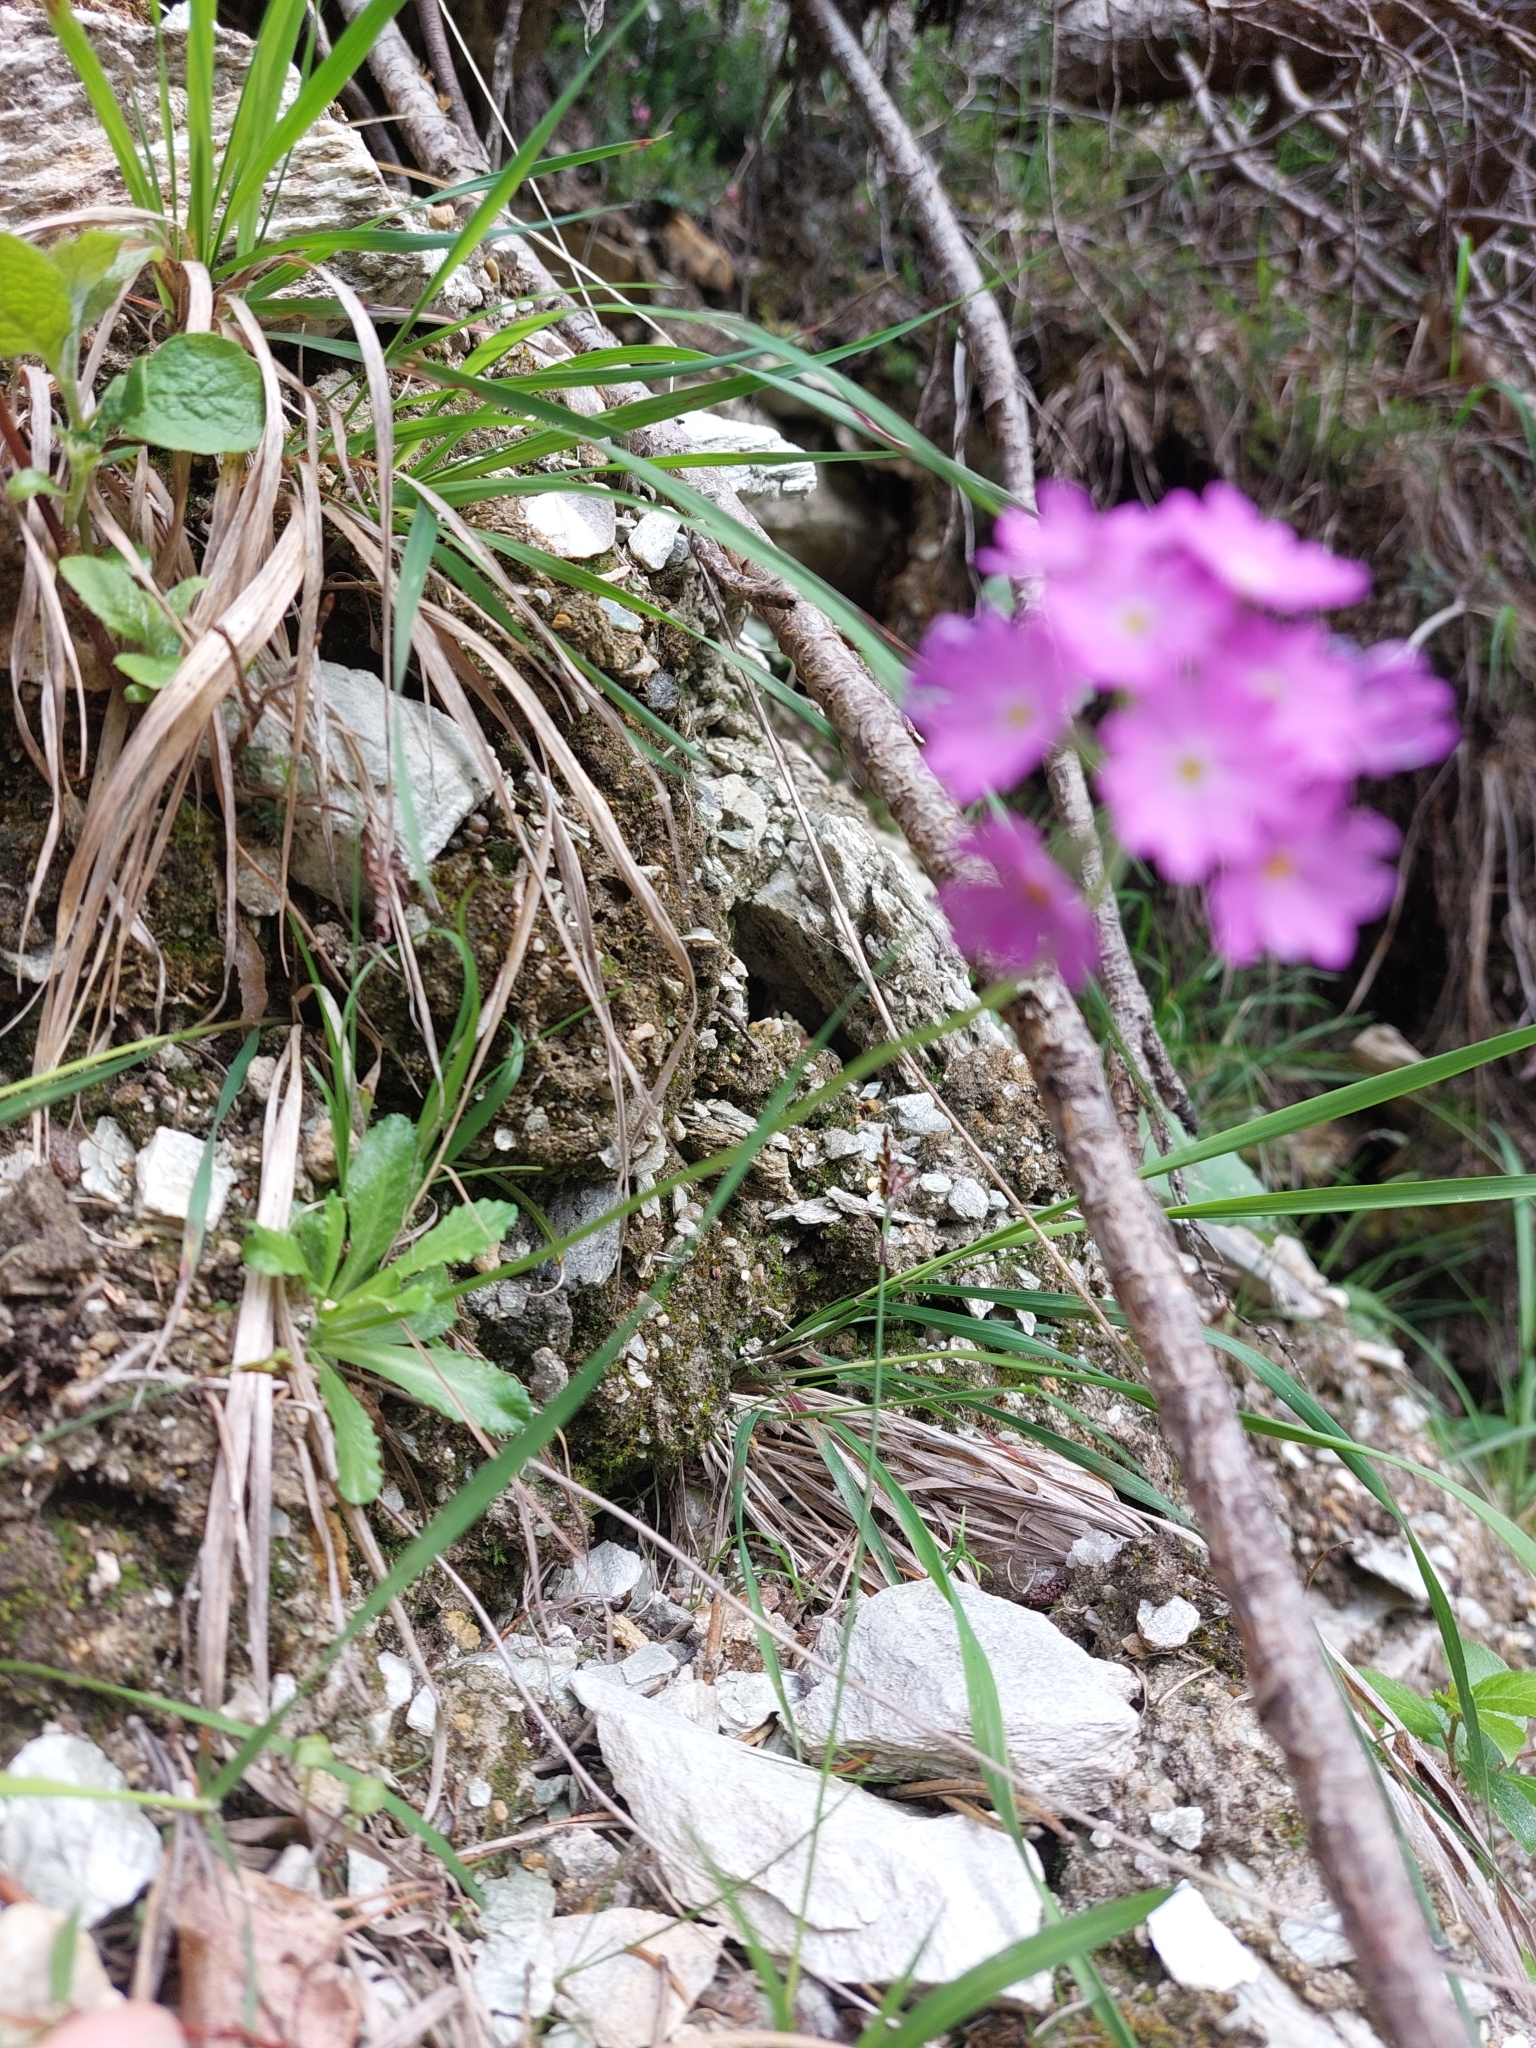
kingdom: Plantae
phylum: Tracheophyta
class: Magnoliopsida
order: Ericales
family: Primulaceae
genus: Primula
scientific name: Primula farinosa
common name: Bird's-eye primrose
